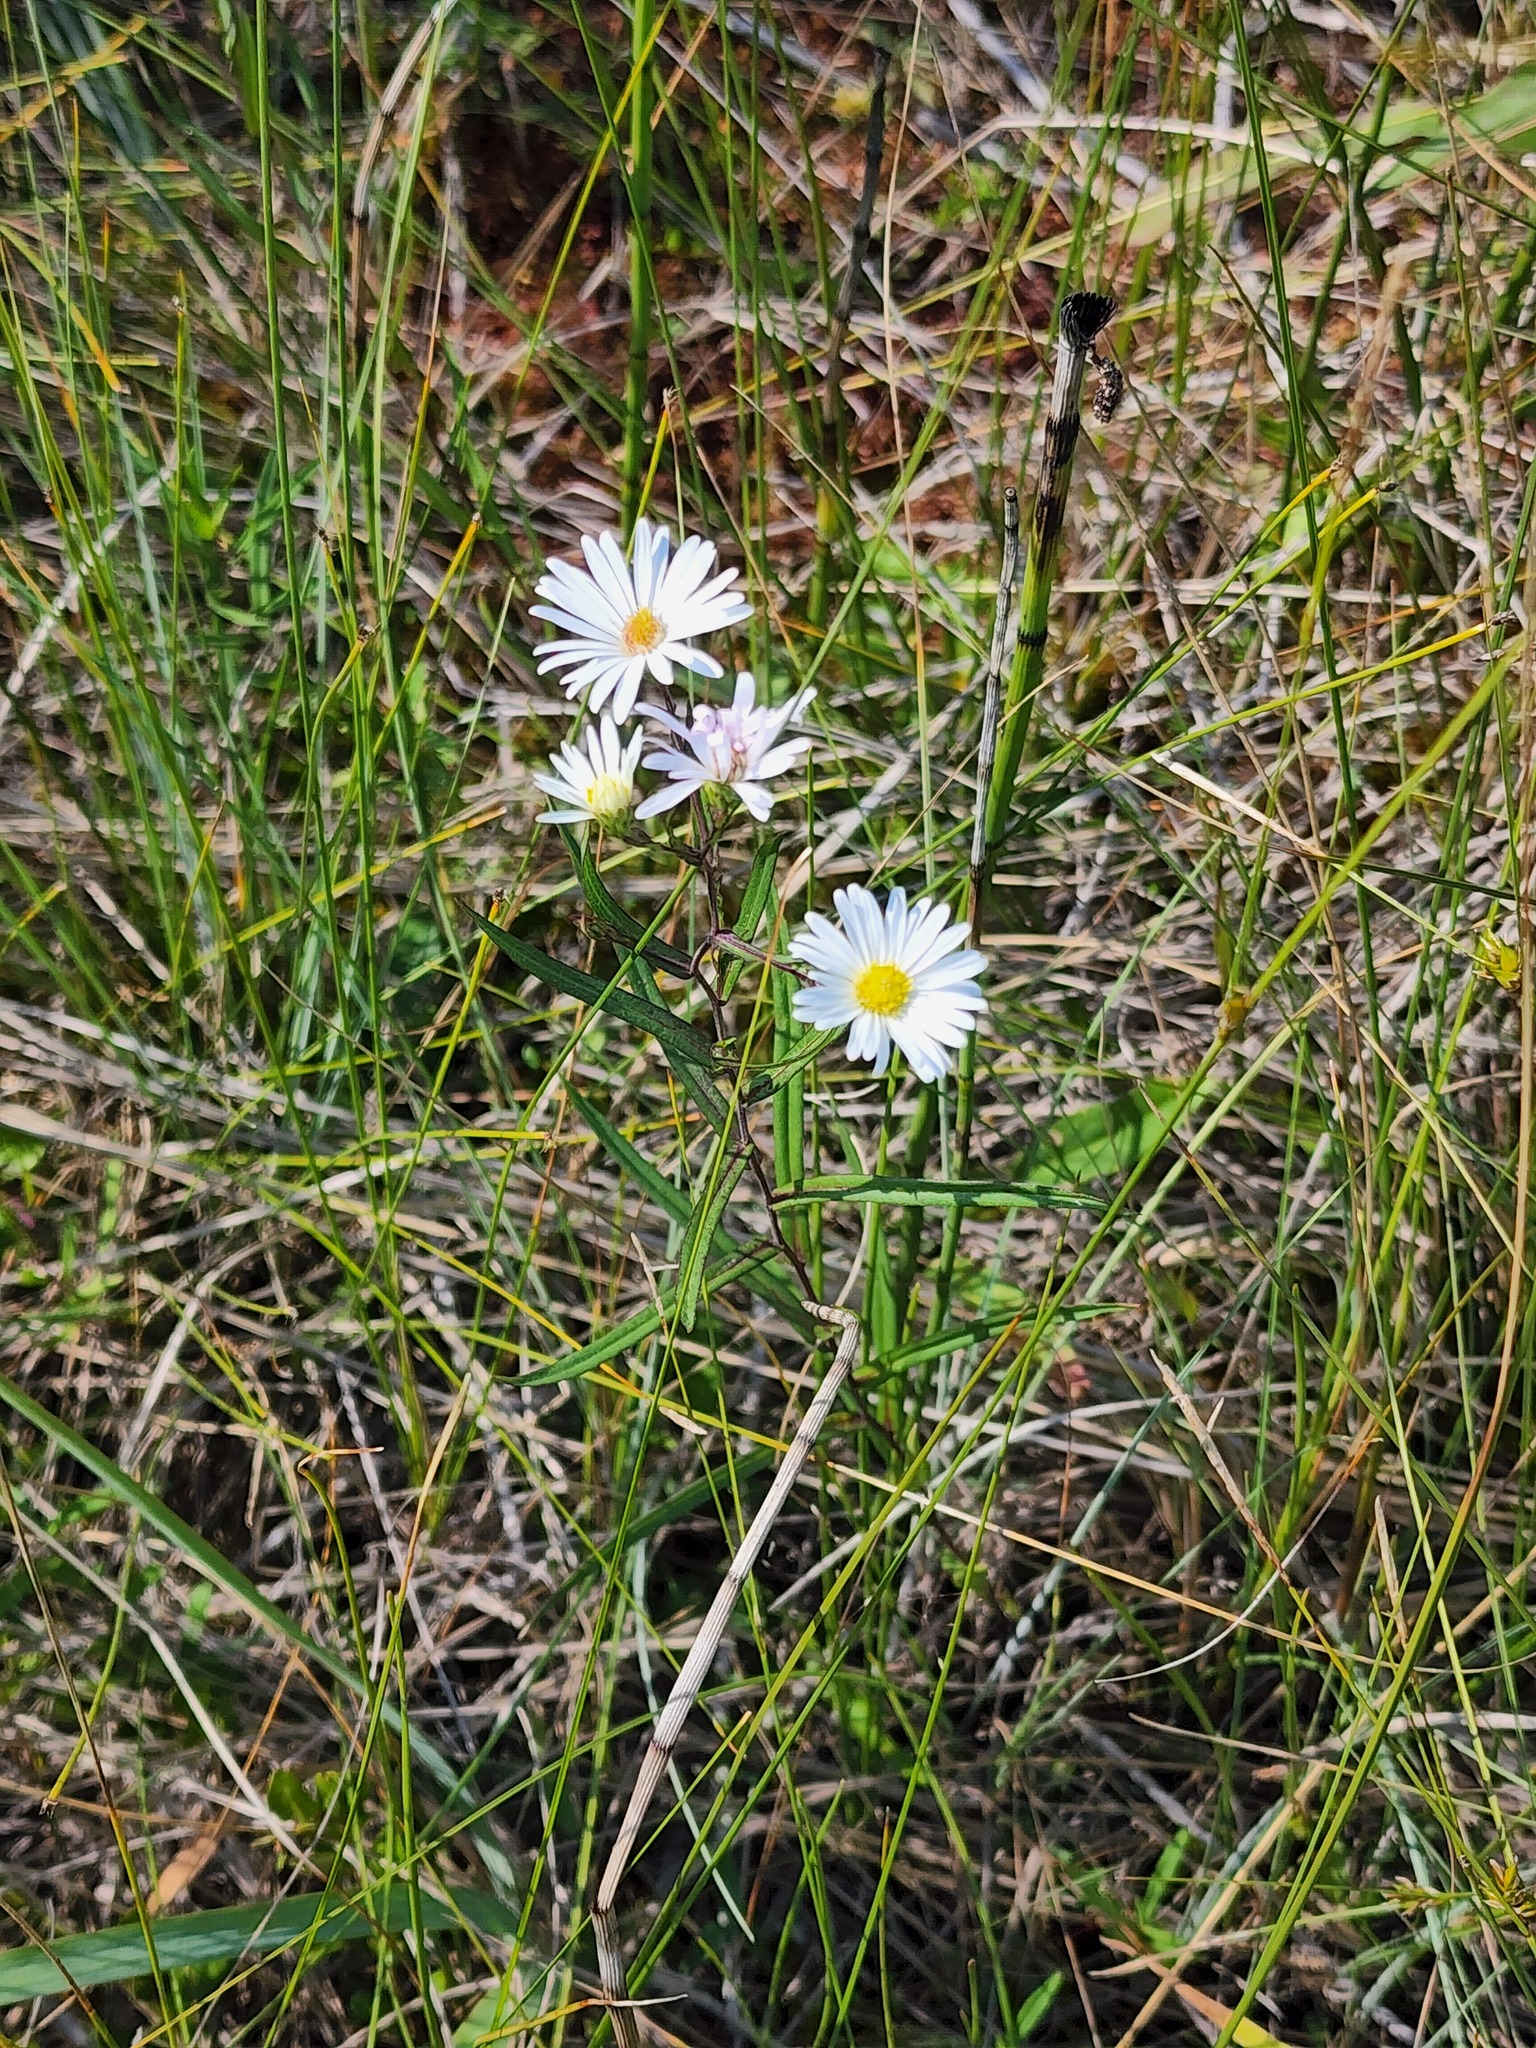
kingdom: Plantae
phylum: Tracheophyta
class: Magnoliopsida
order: Asterales
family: Asteraceae
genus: Symphyotrichum
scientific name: Symphyotrichum boreale
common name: Northern bog aster
